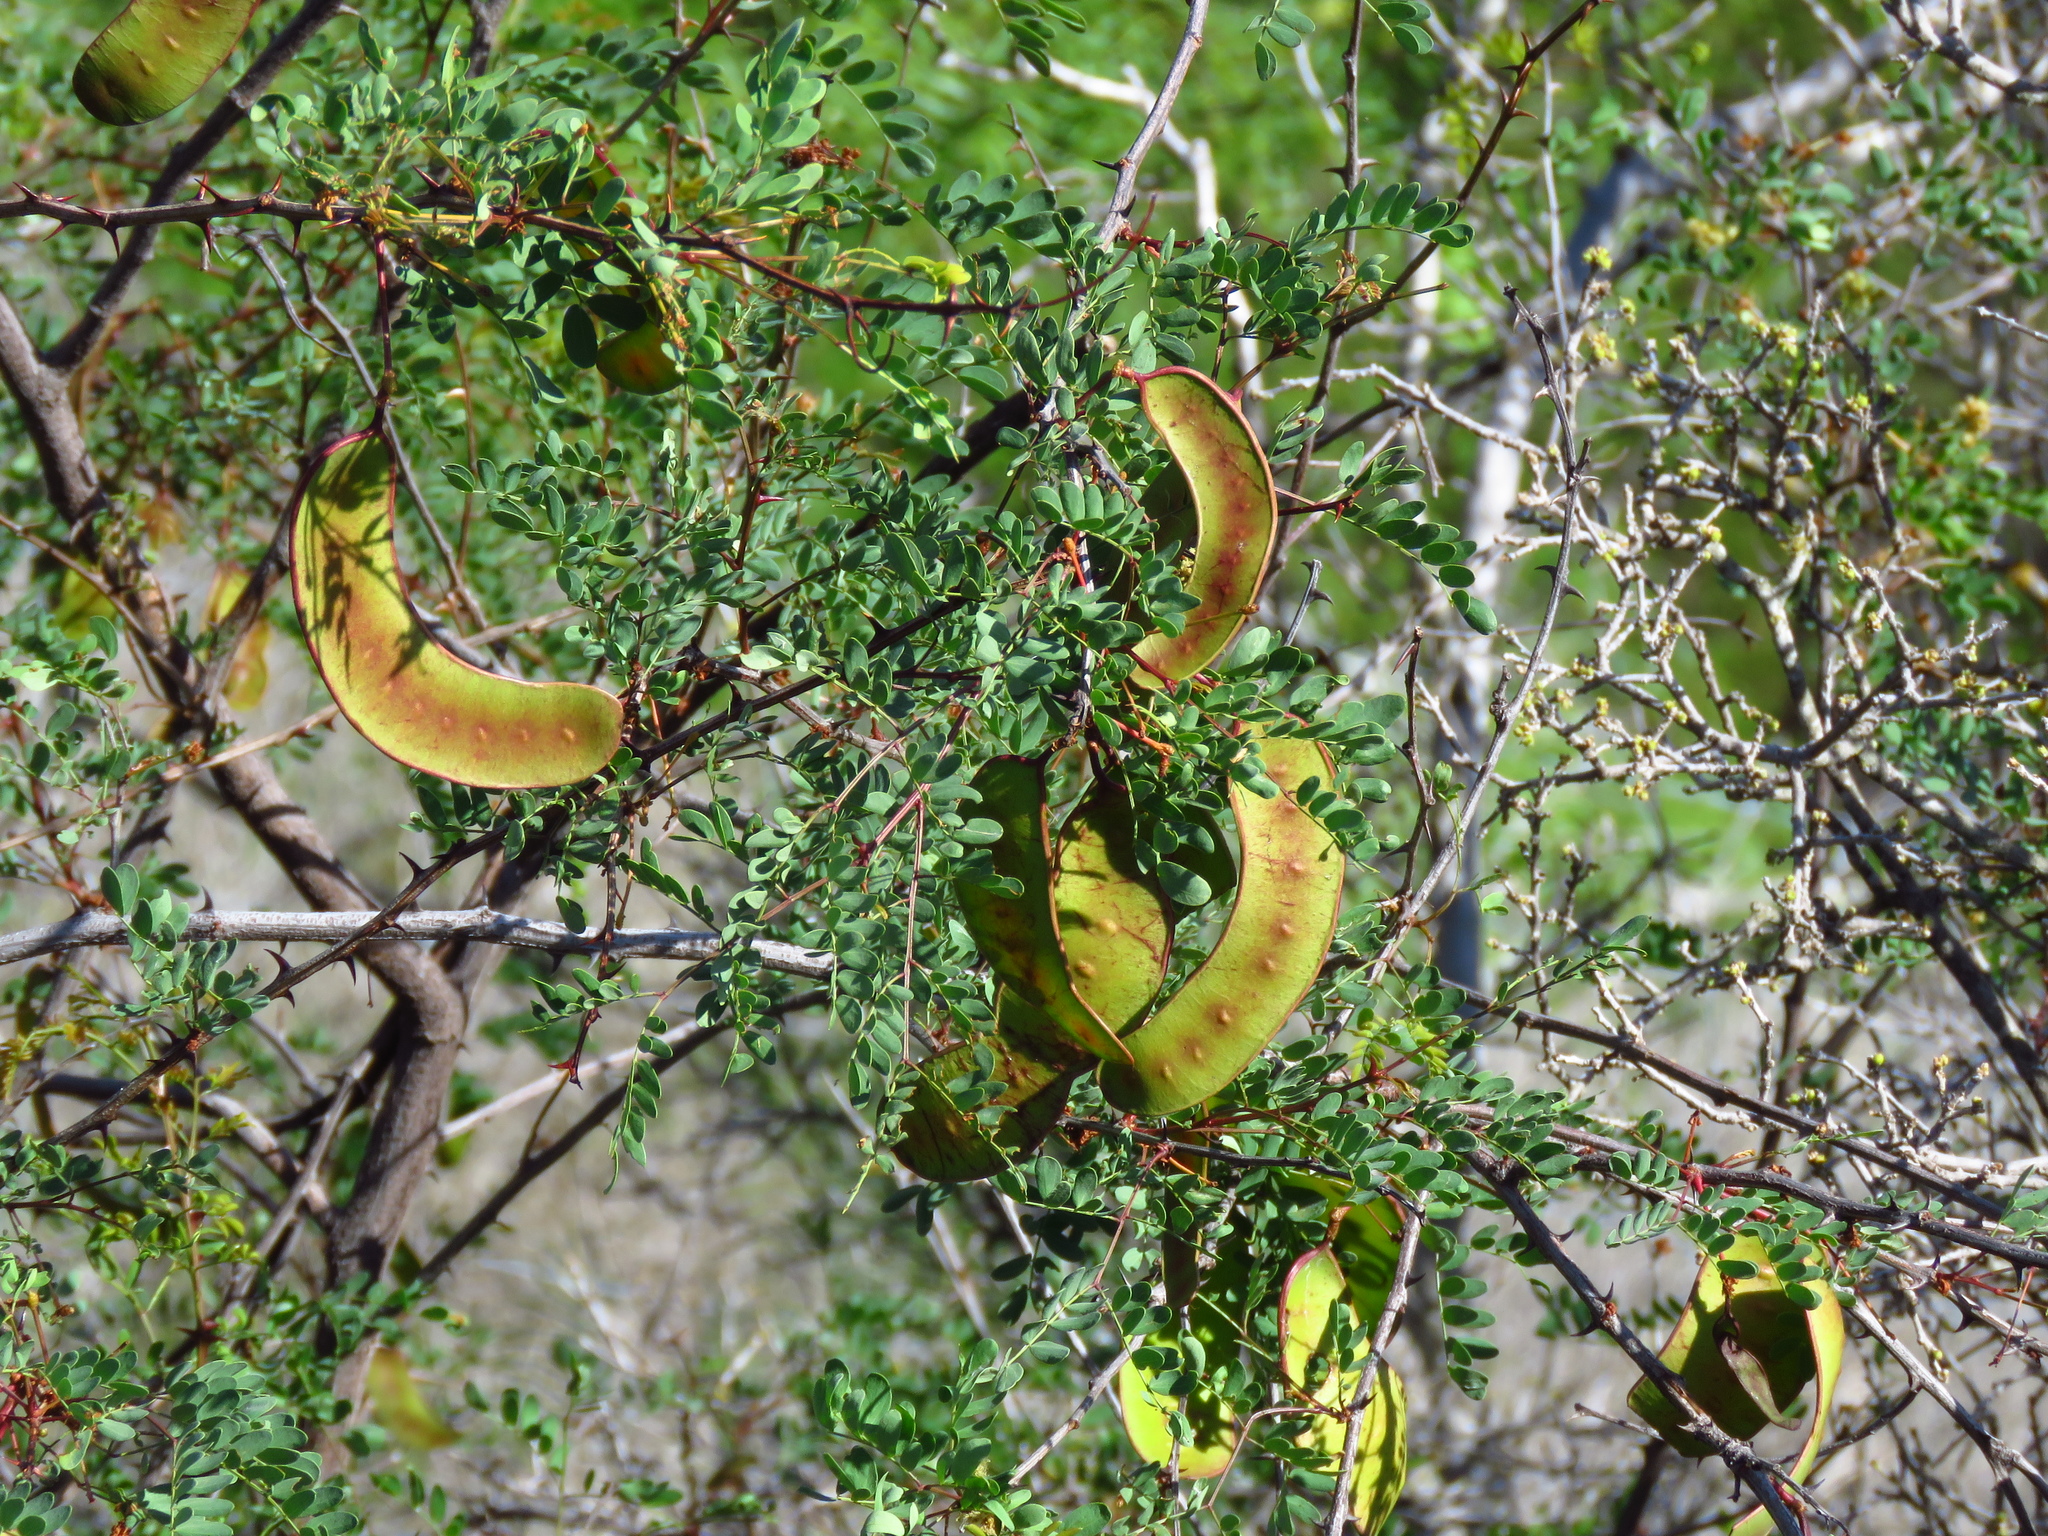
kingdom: Plantae
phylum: Tracheophyta
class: Magnoliopsida
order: Fabales
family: Fabaceae
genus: Senegalia
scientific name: Senegalia roemeriana
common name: Roemer's acacia
